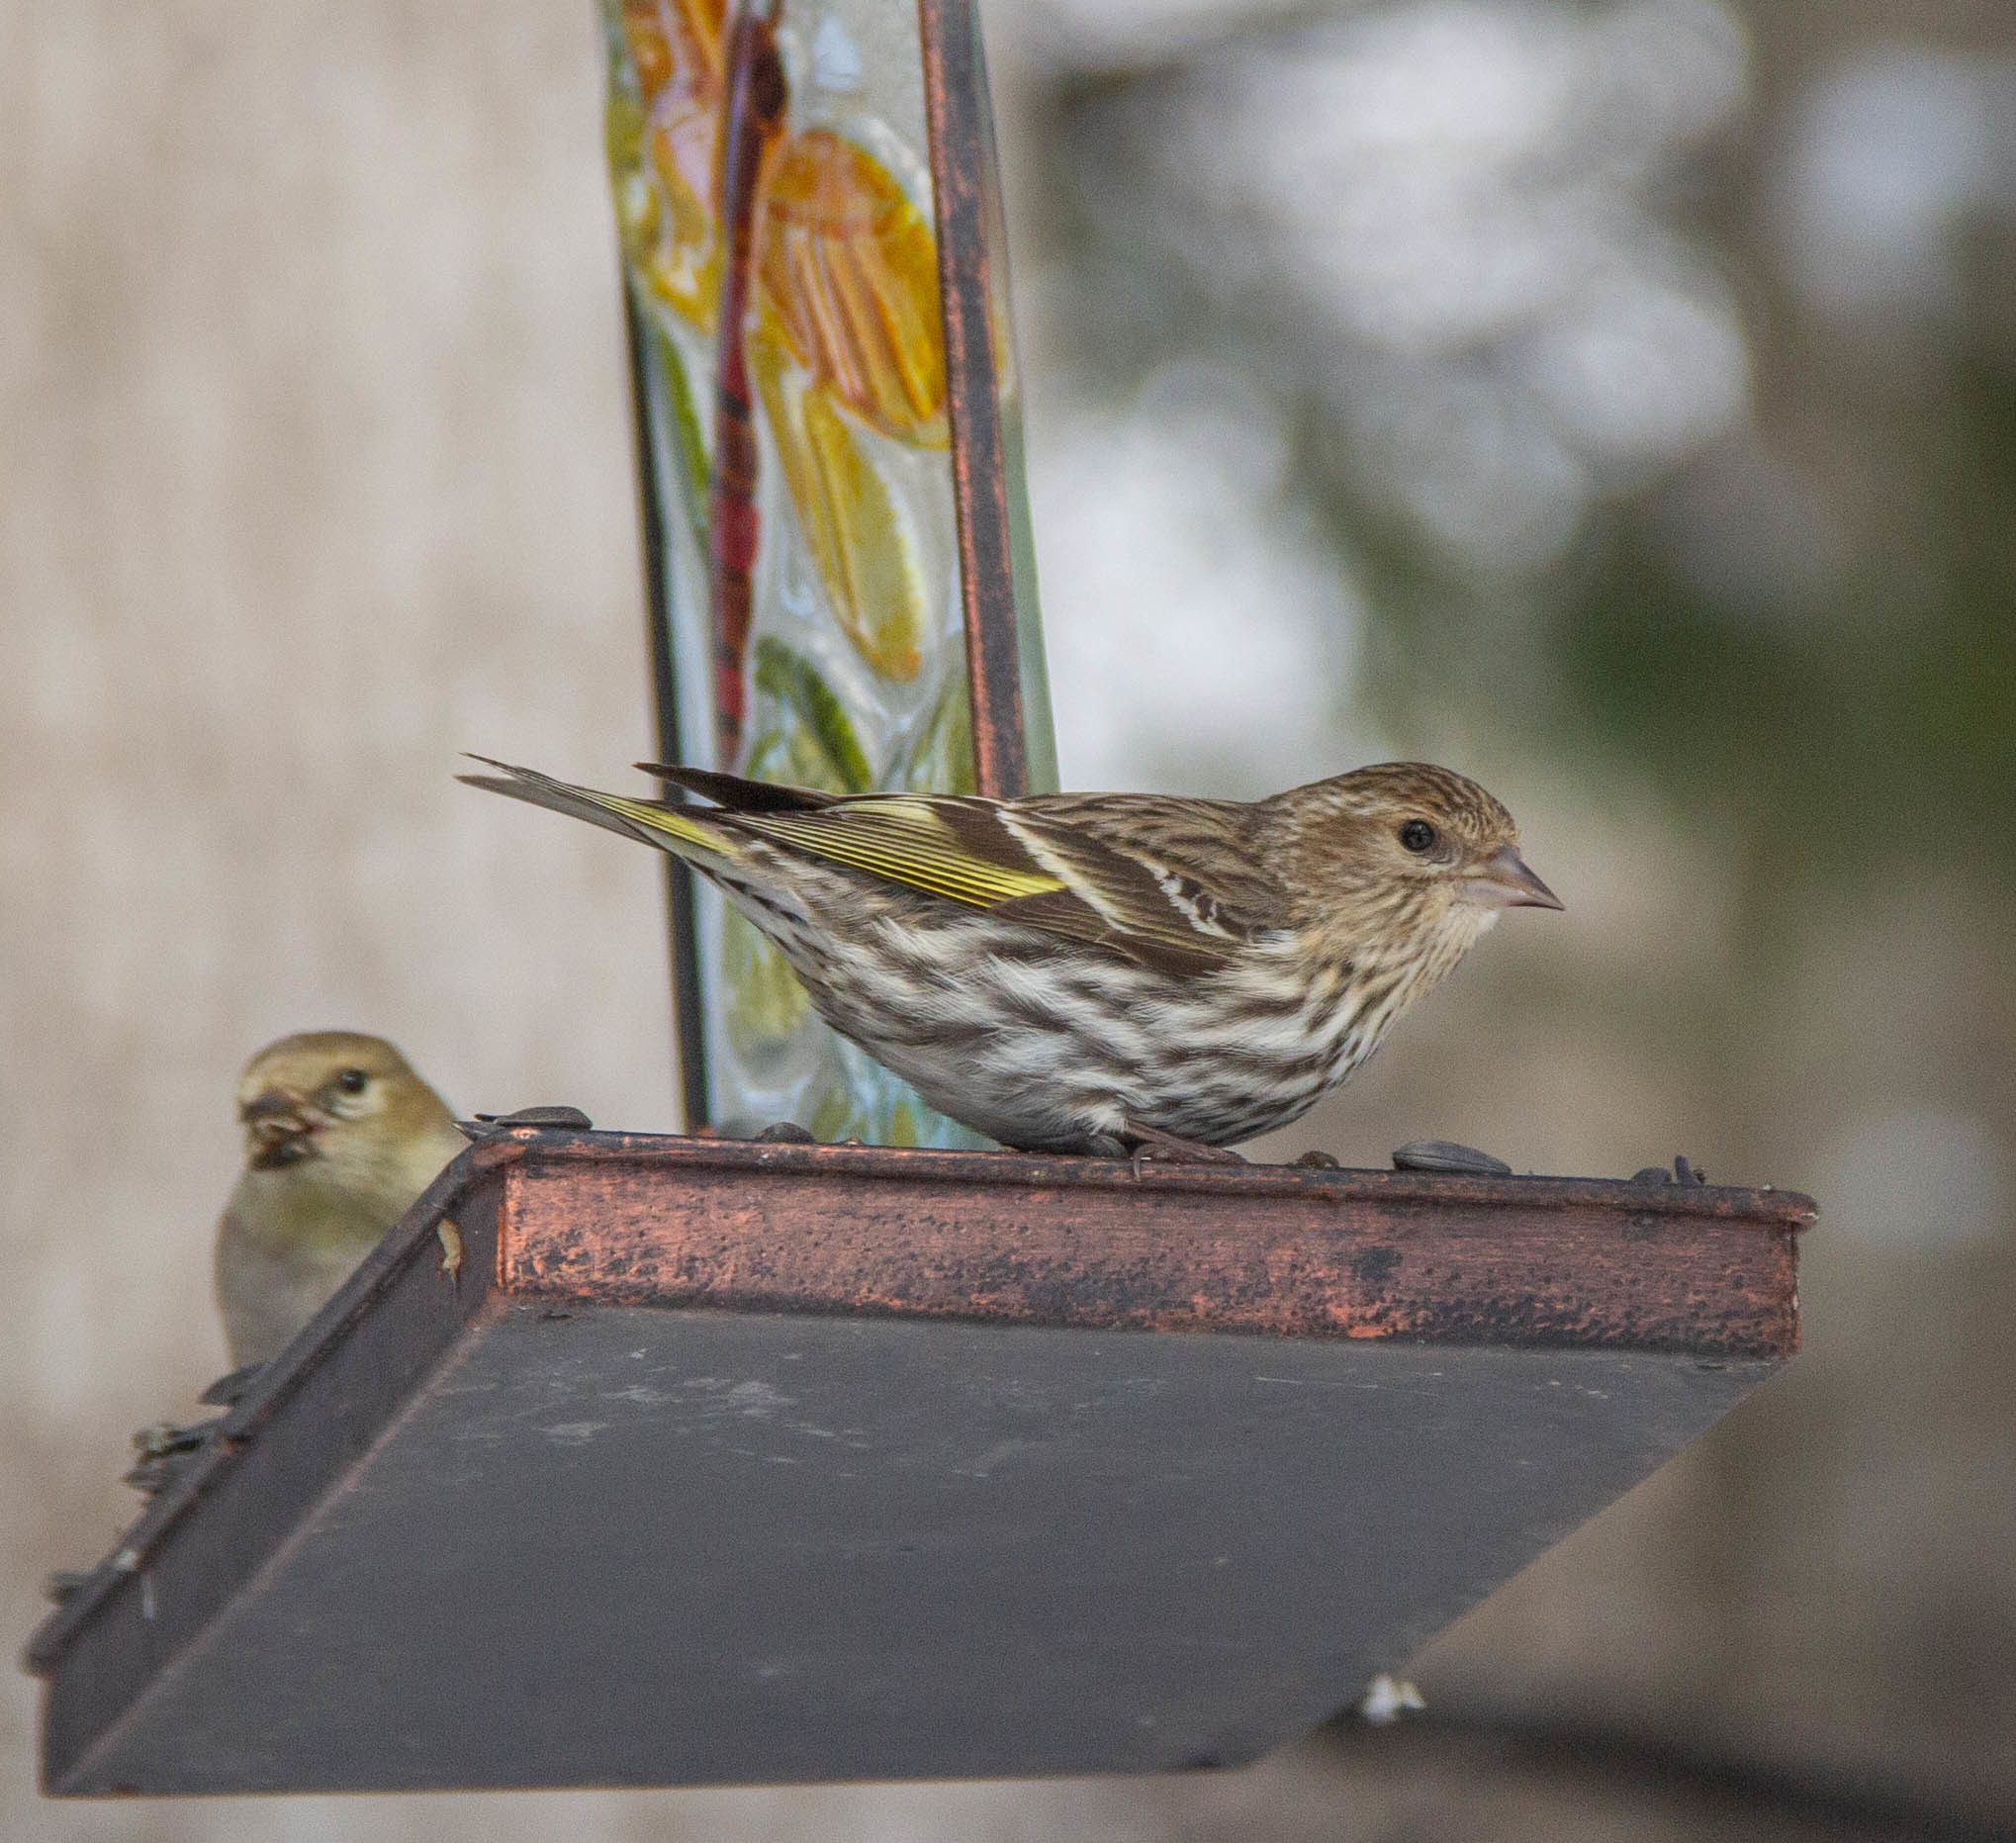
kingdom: Animalia
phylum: Chordata
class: Aves
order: Passeriformes
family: Fringillidae
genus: Spinus
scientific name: Spinus pinus
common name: Pine siskin
